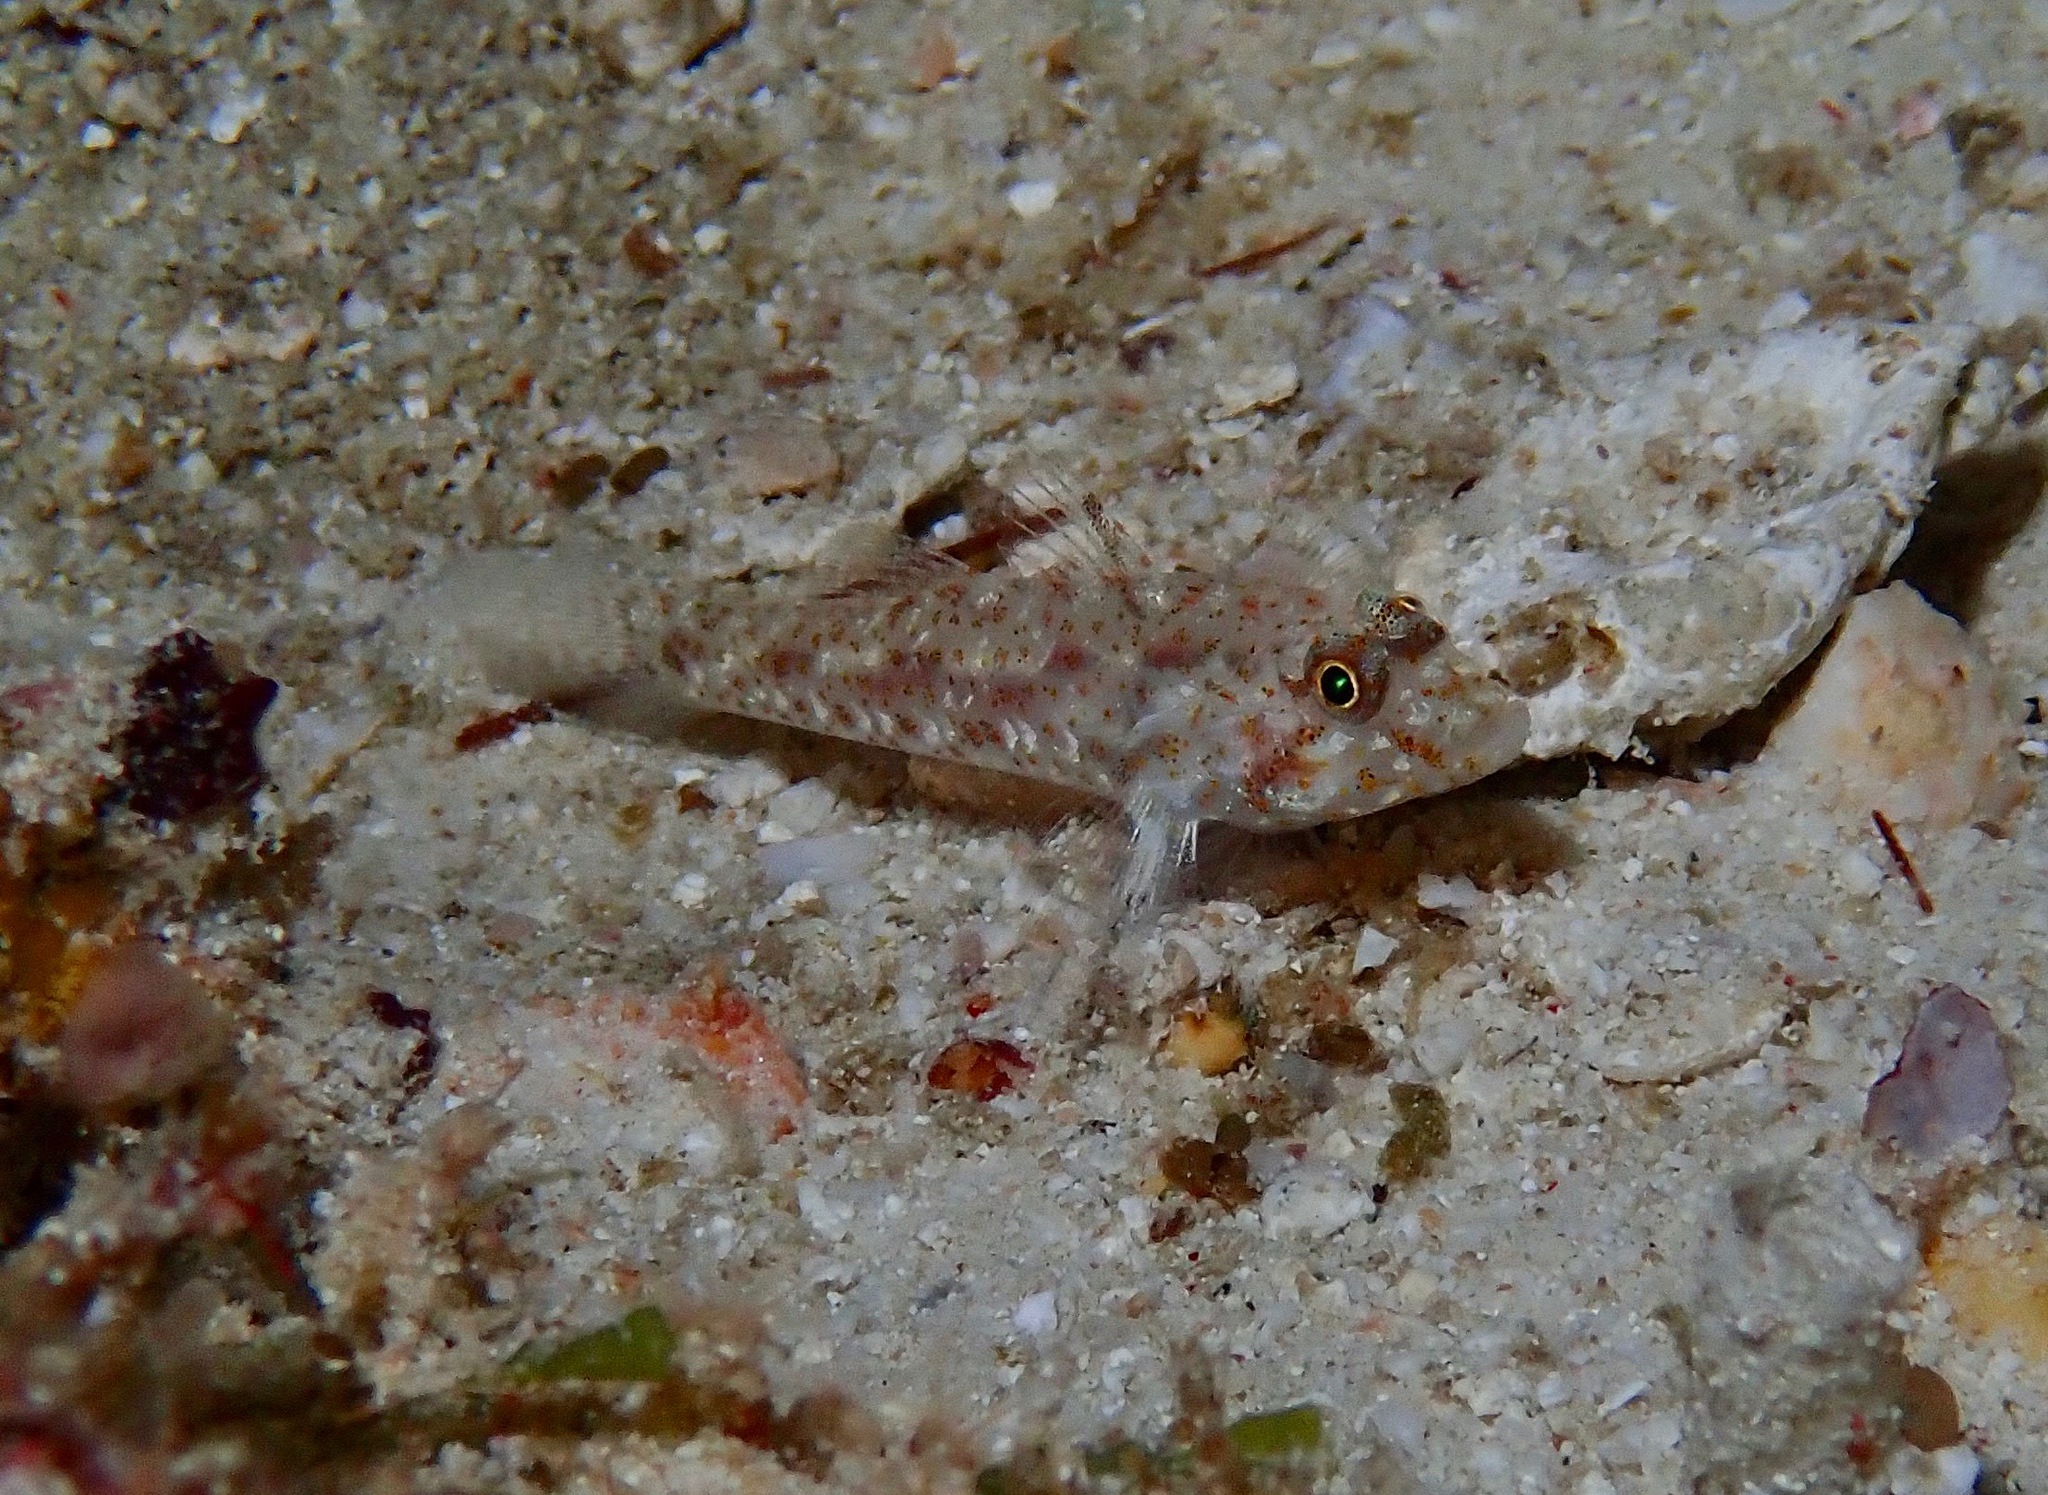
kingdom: Animalia
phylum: Chordata
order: Perciformes
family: Gobiidae
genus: Fusigobius
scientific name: Fusigobius humeralis
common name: Shoulderspot sandgoby
